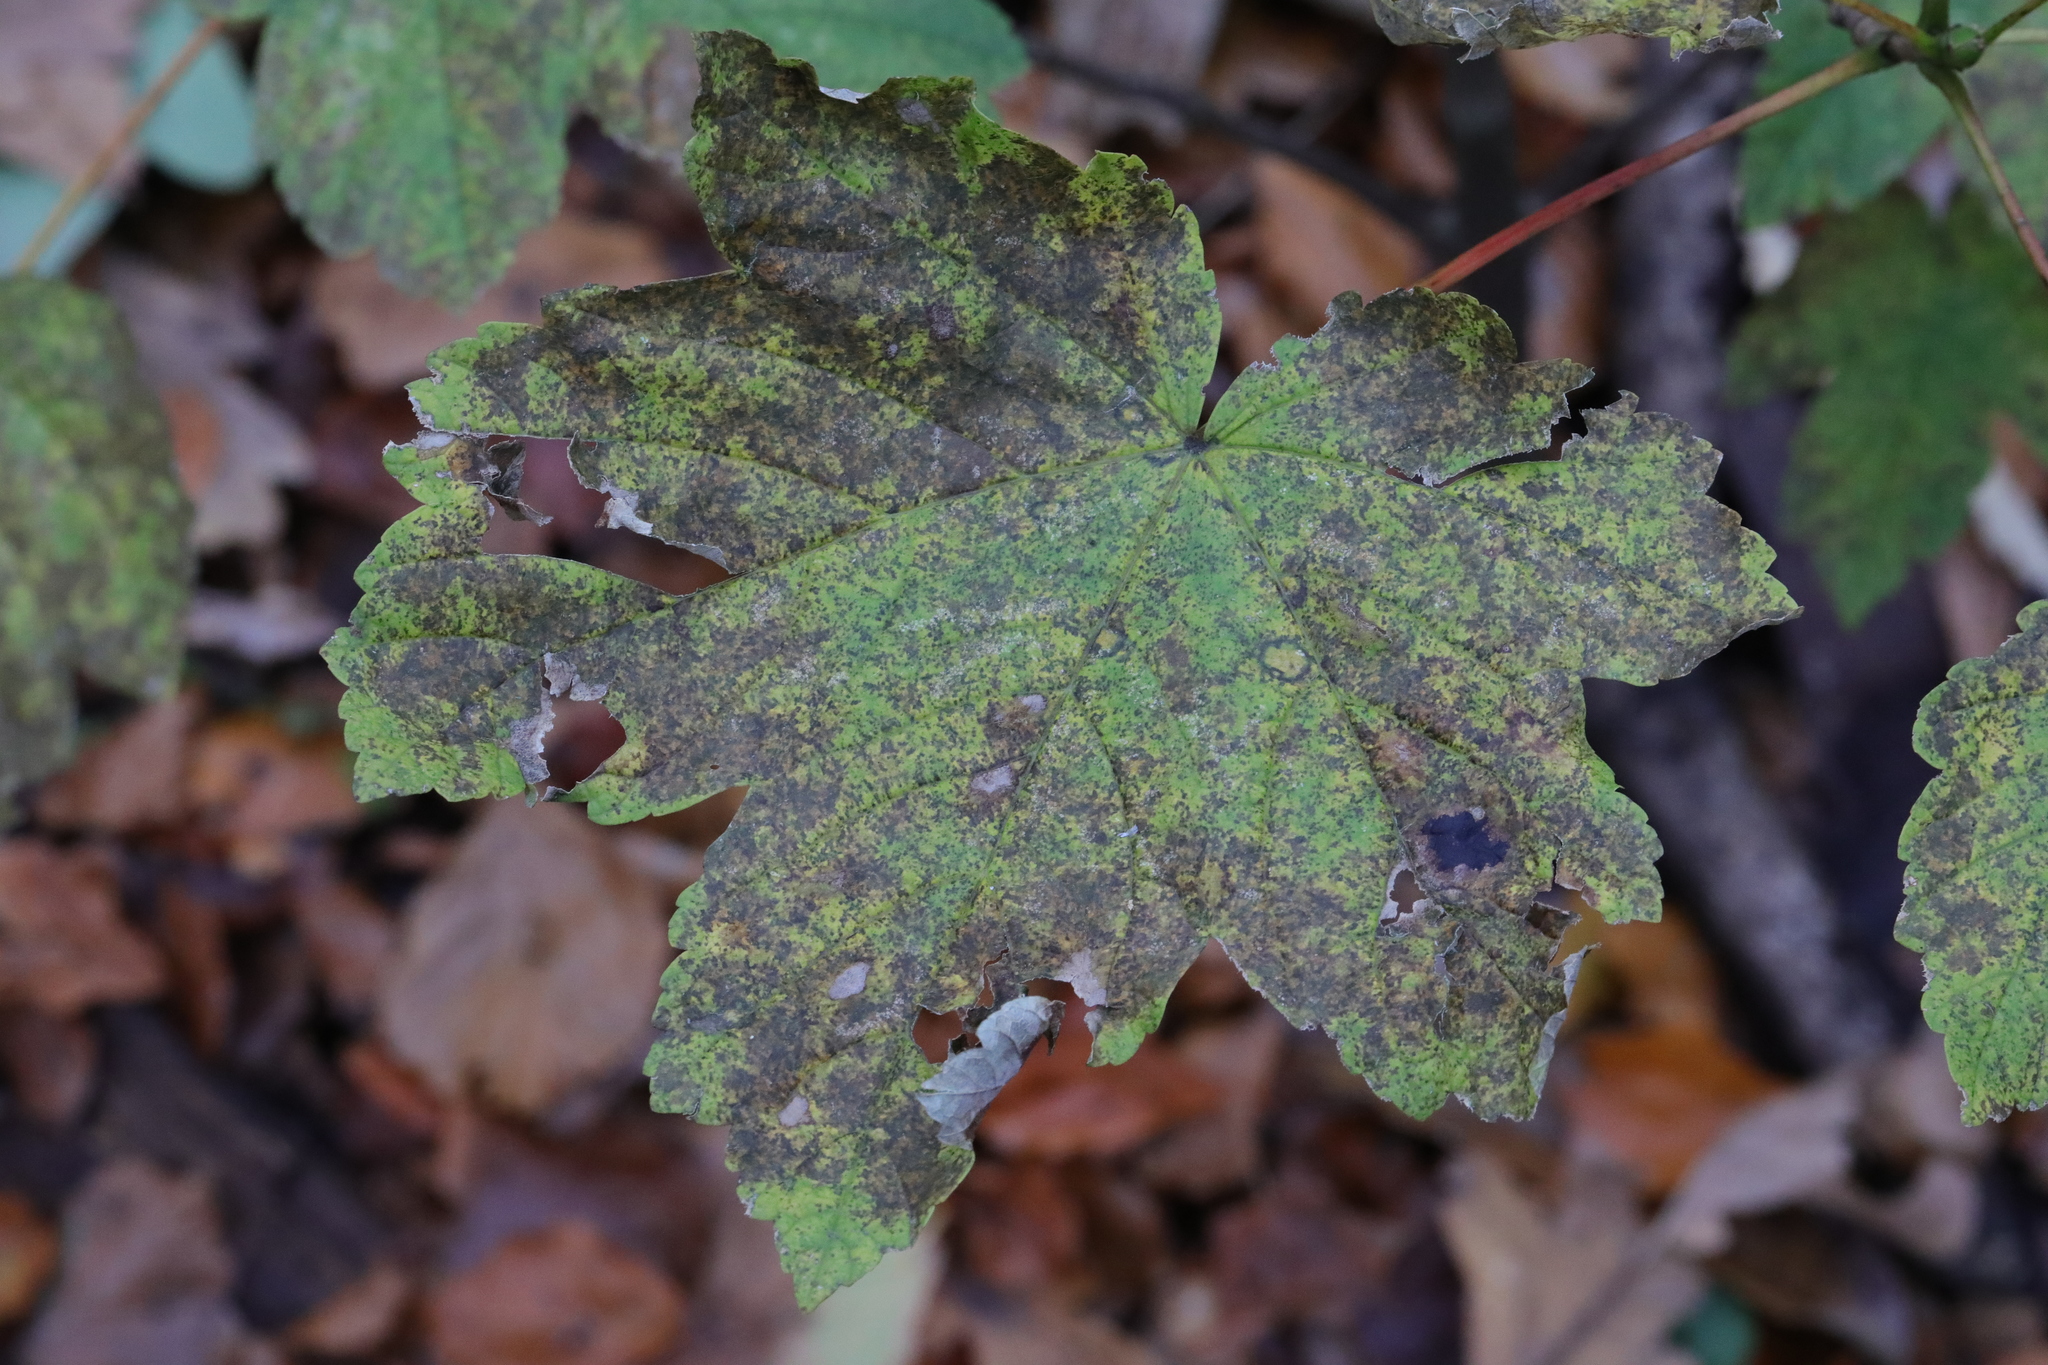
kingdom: Plantae
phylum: Tracheophyta
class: Magnoliopsida
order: Sapindales
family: Sapindaceae
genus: Acer
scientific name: Acer pseudoplatanus
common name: Sycamore
